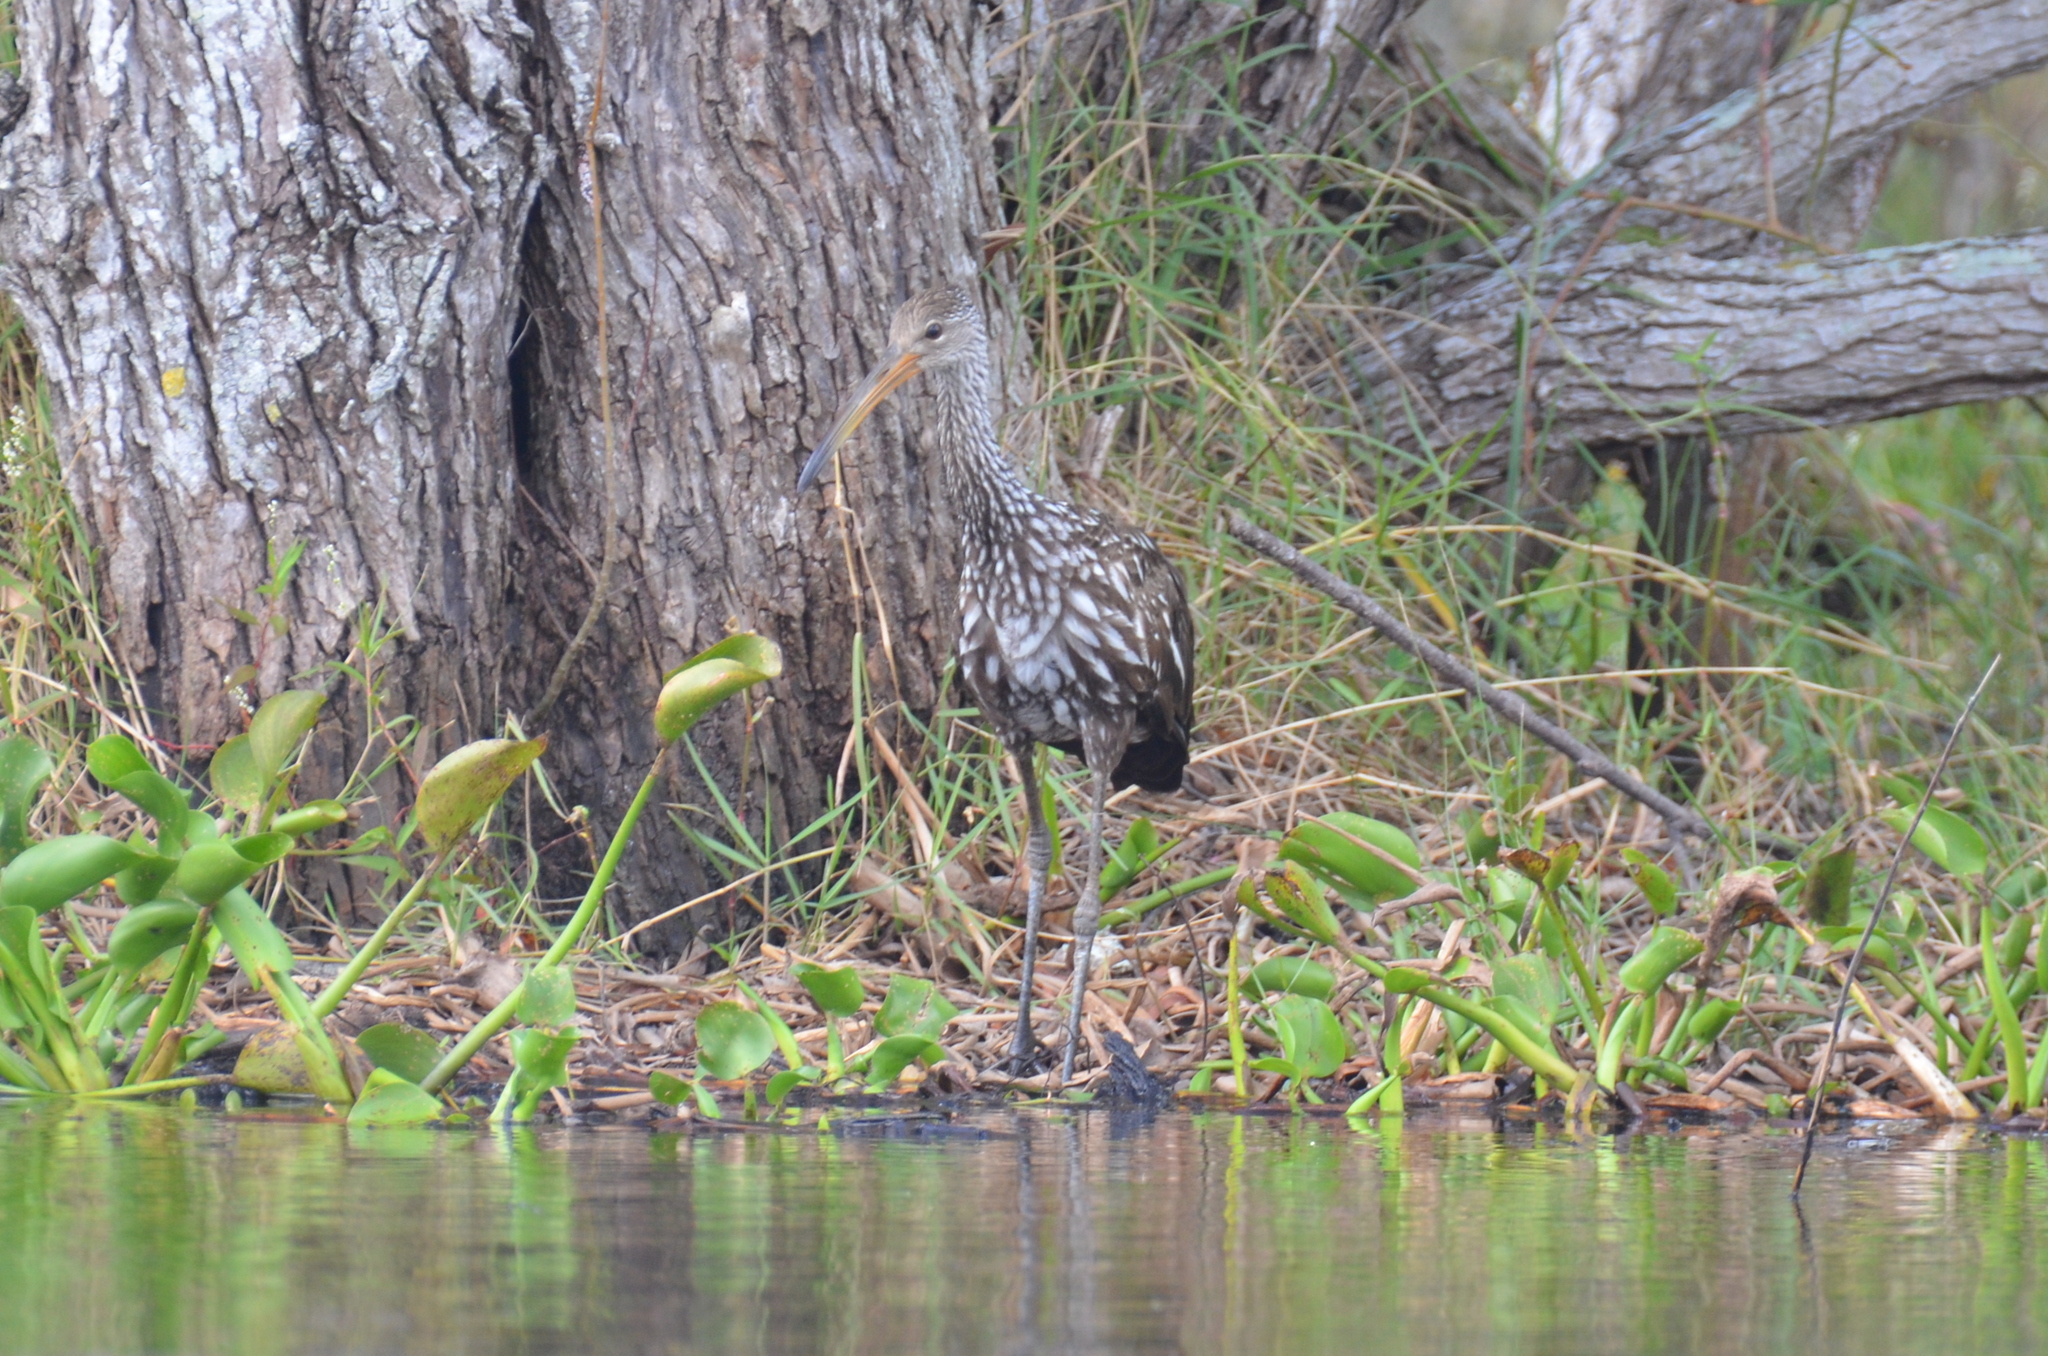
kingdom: Animalia
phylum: Chordata
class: Aves
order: Gruiformes
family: Aramidae
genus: Aramus
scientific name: Aramus guarauna
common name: Limpkin
